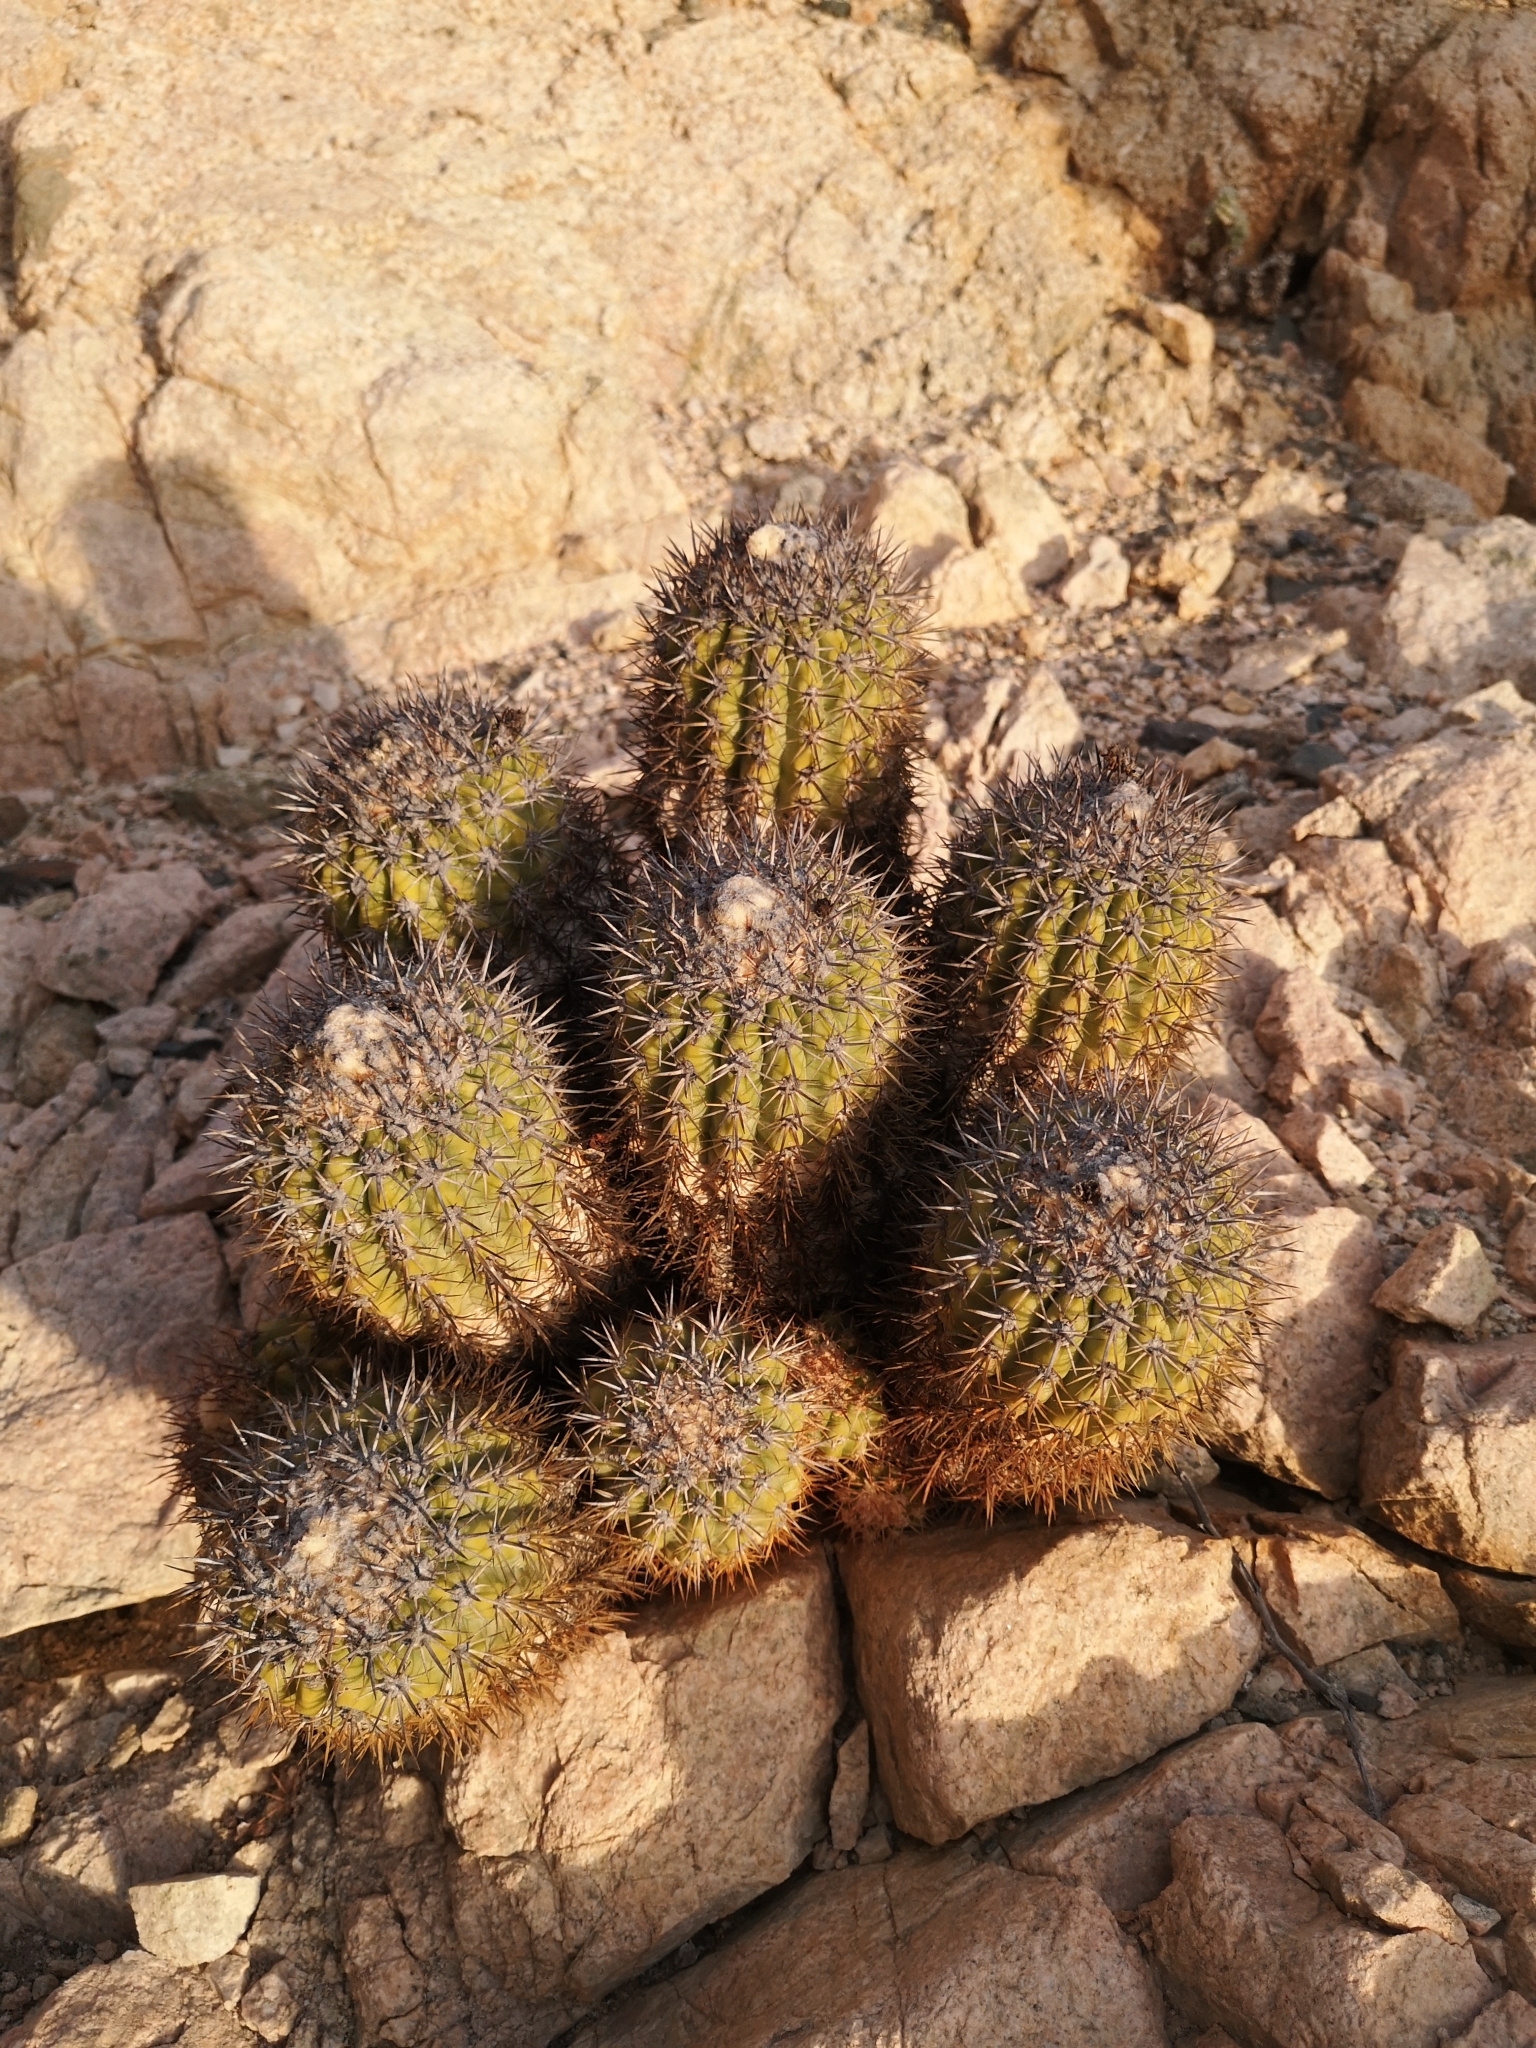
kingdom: Plantae
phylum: Tracheophyta
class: Magnoliopsida
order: Caryophyllales
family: Cactaceae
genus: Copiapoa
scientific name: Copiapoa decorticans
